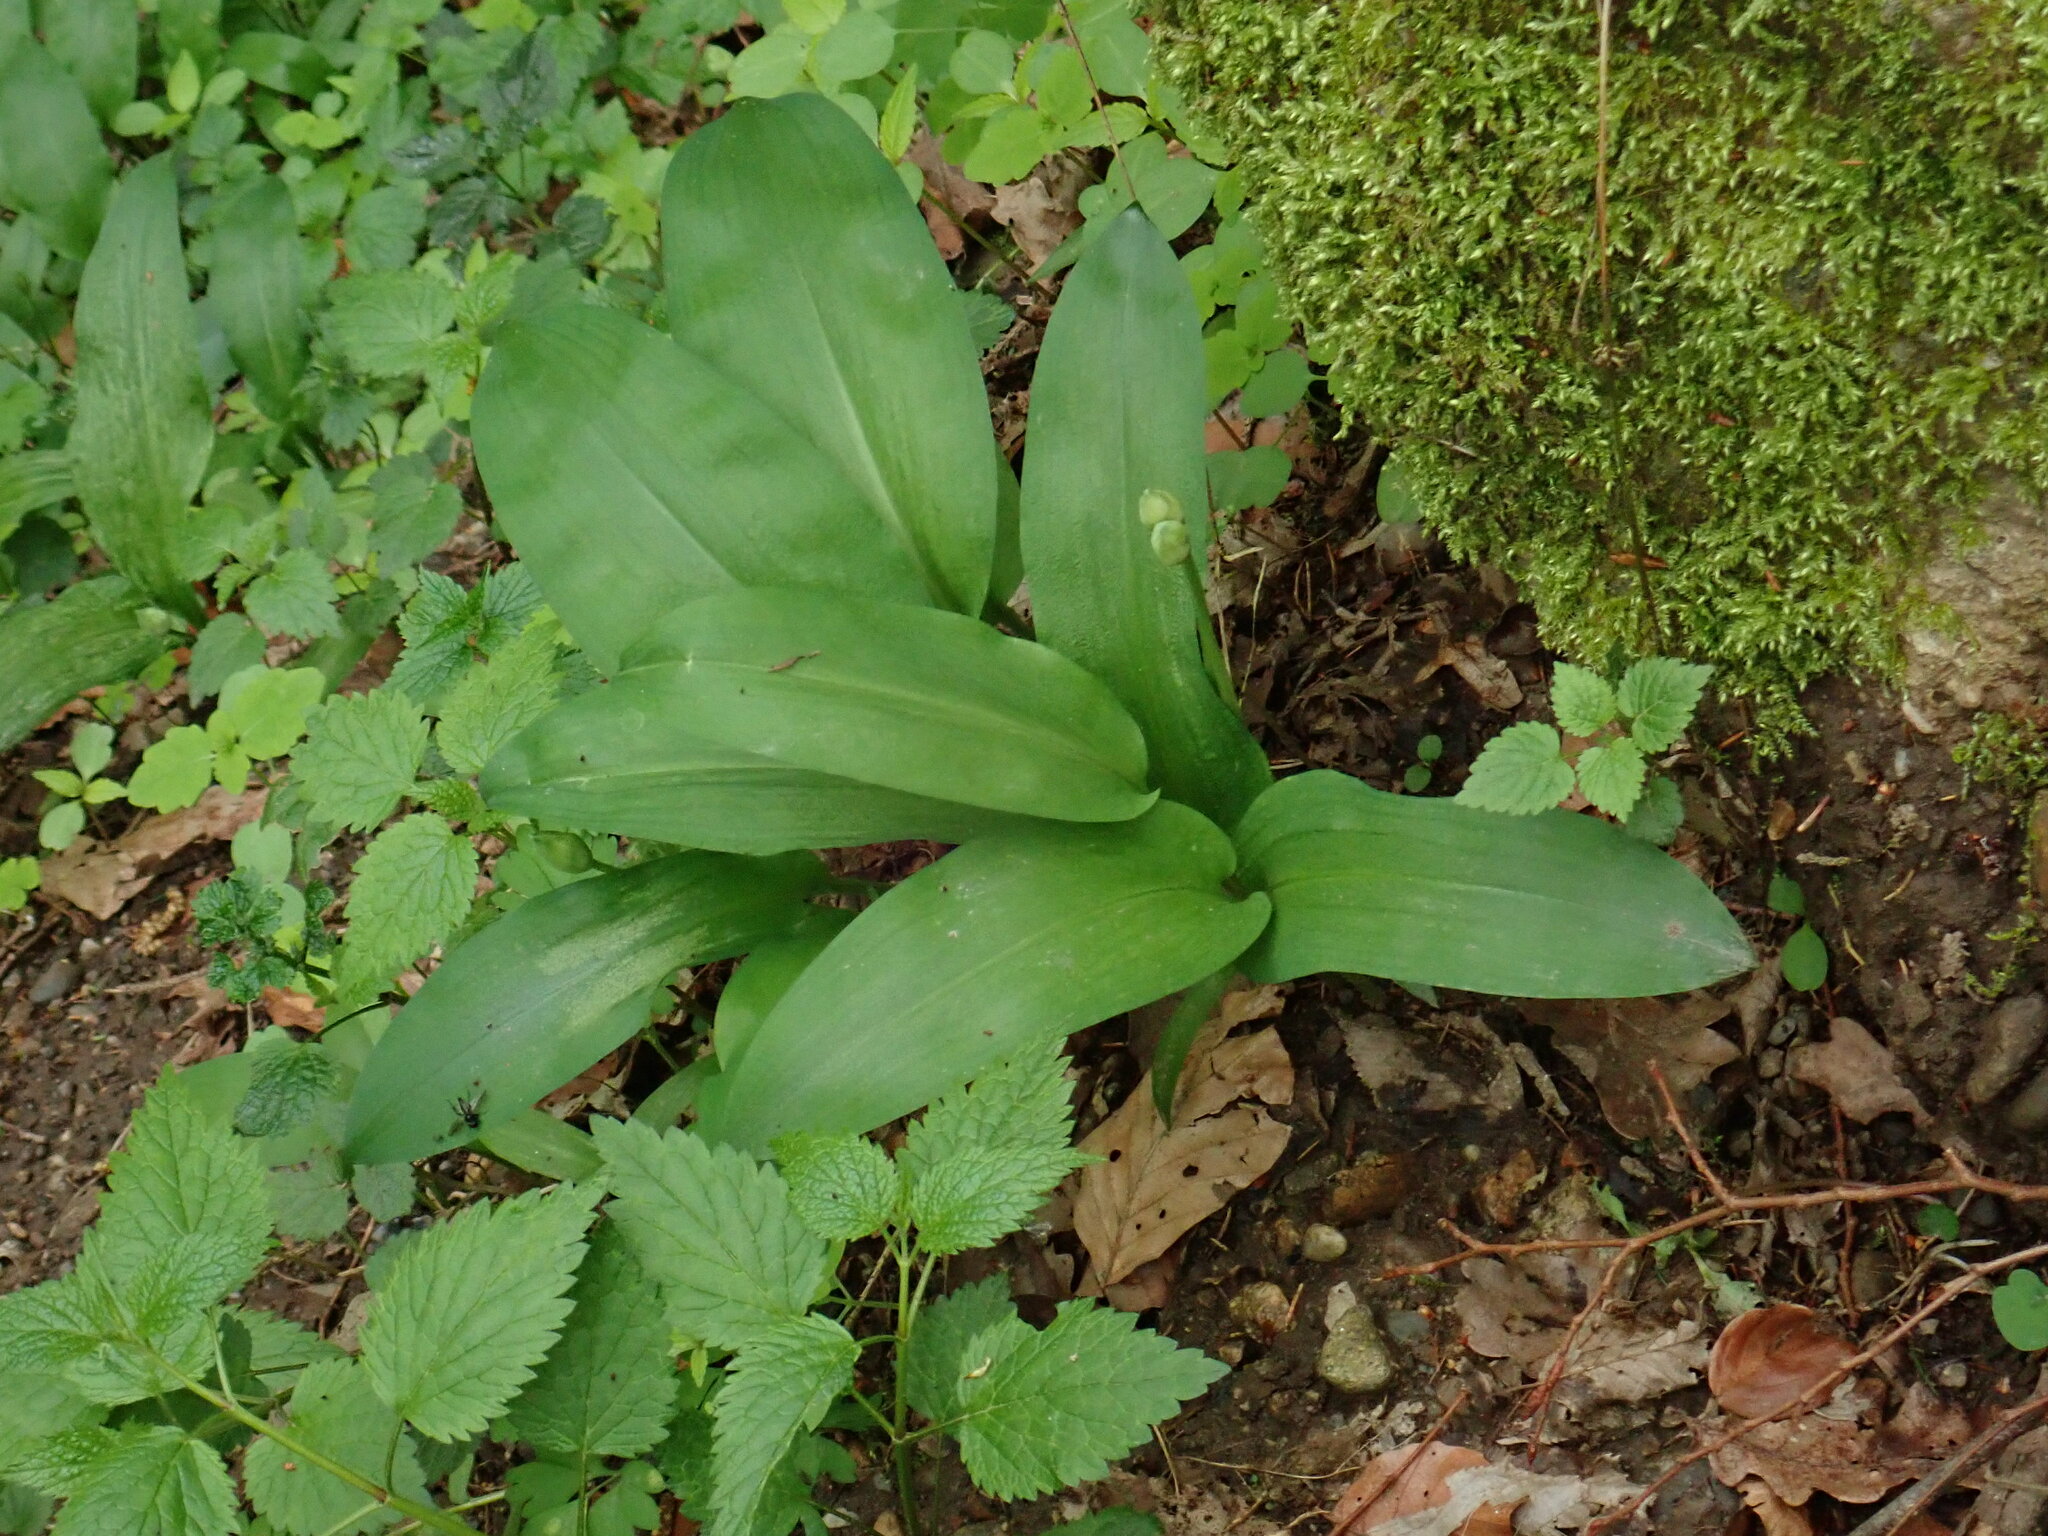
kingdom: Plantae
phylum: Tracheophyta
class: Liliopsida
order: Asparagales
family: Amaryllidaceae
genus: Allium
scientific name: Allium ursinum
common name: Ramsons
